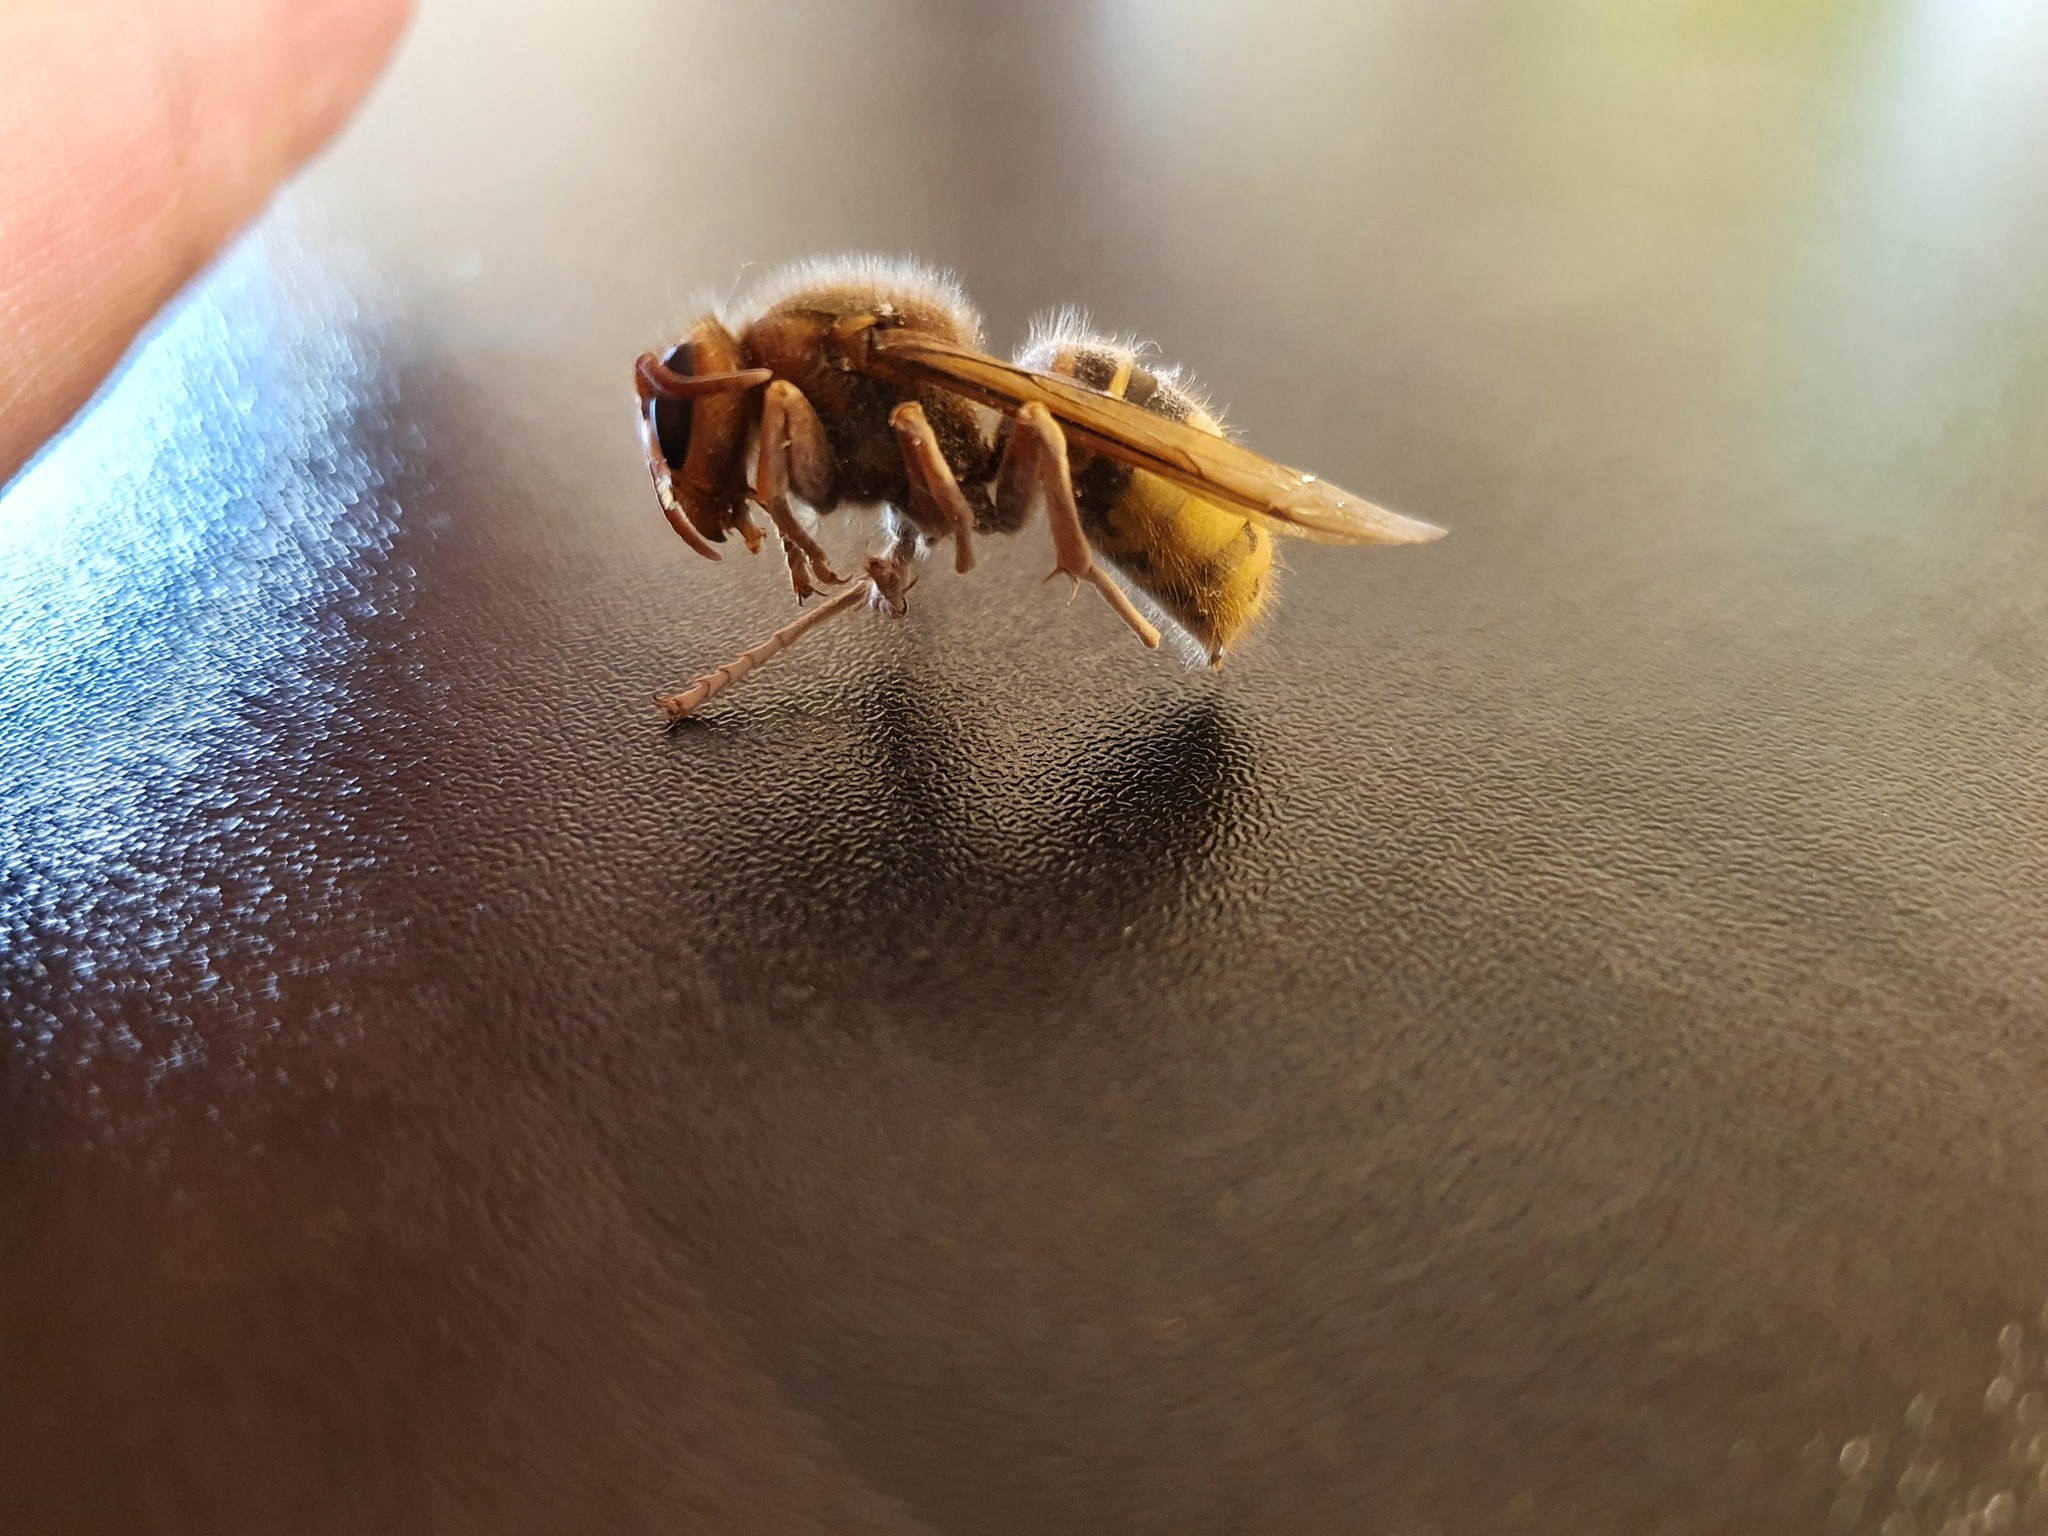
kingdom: Animalia
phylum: Arthropoda
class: Insecta
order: Hymenoptera
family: Vespidae
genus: Vespa
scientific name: Vespa crabro
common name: Hornet
